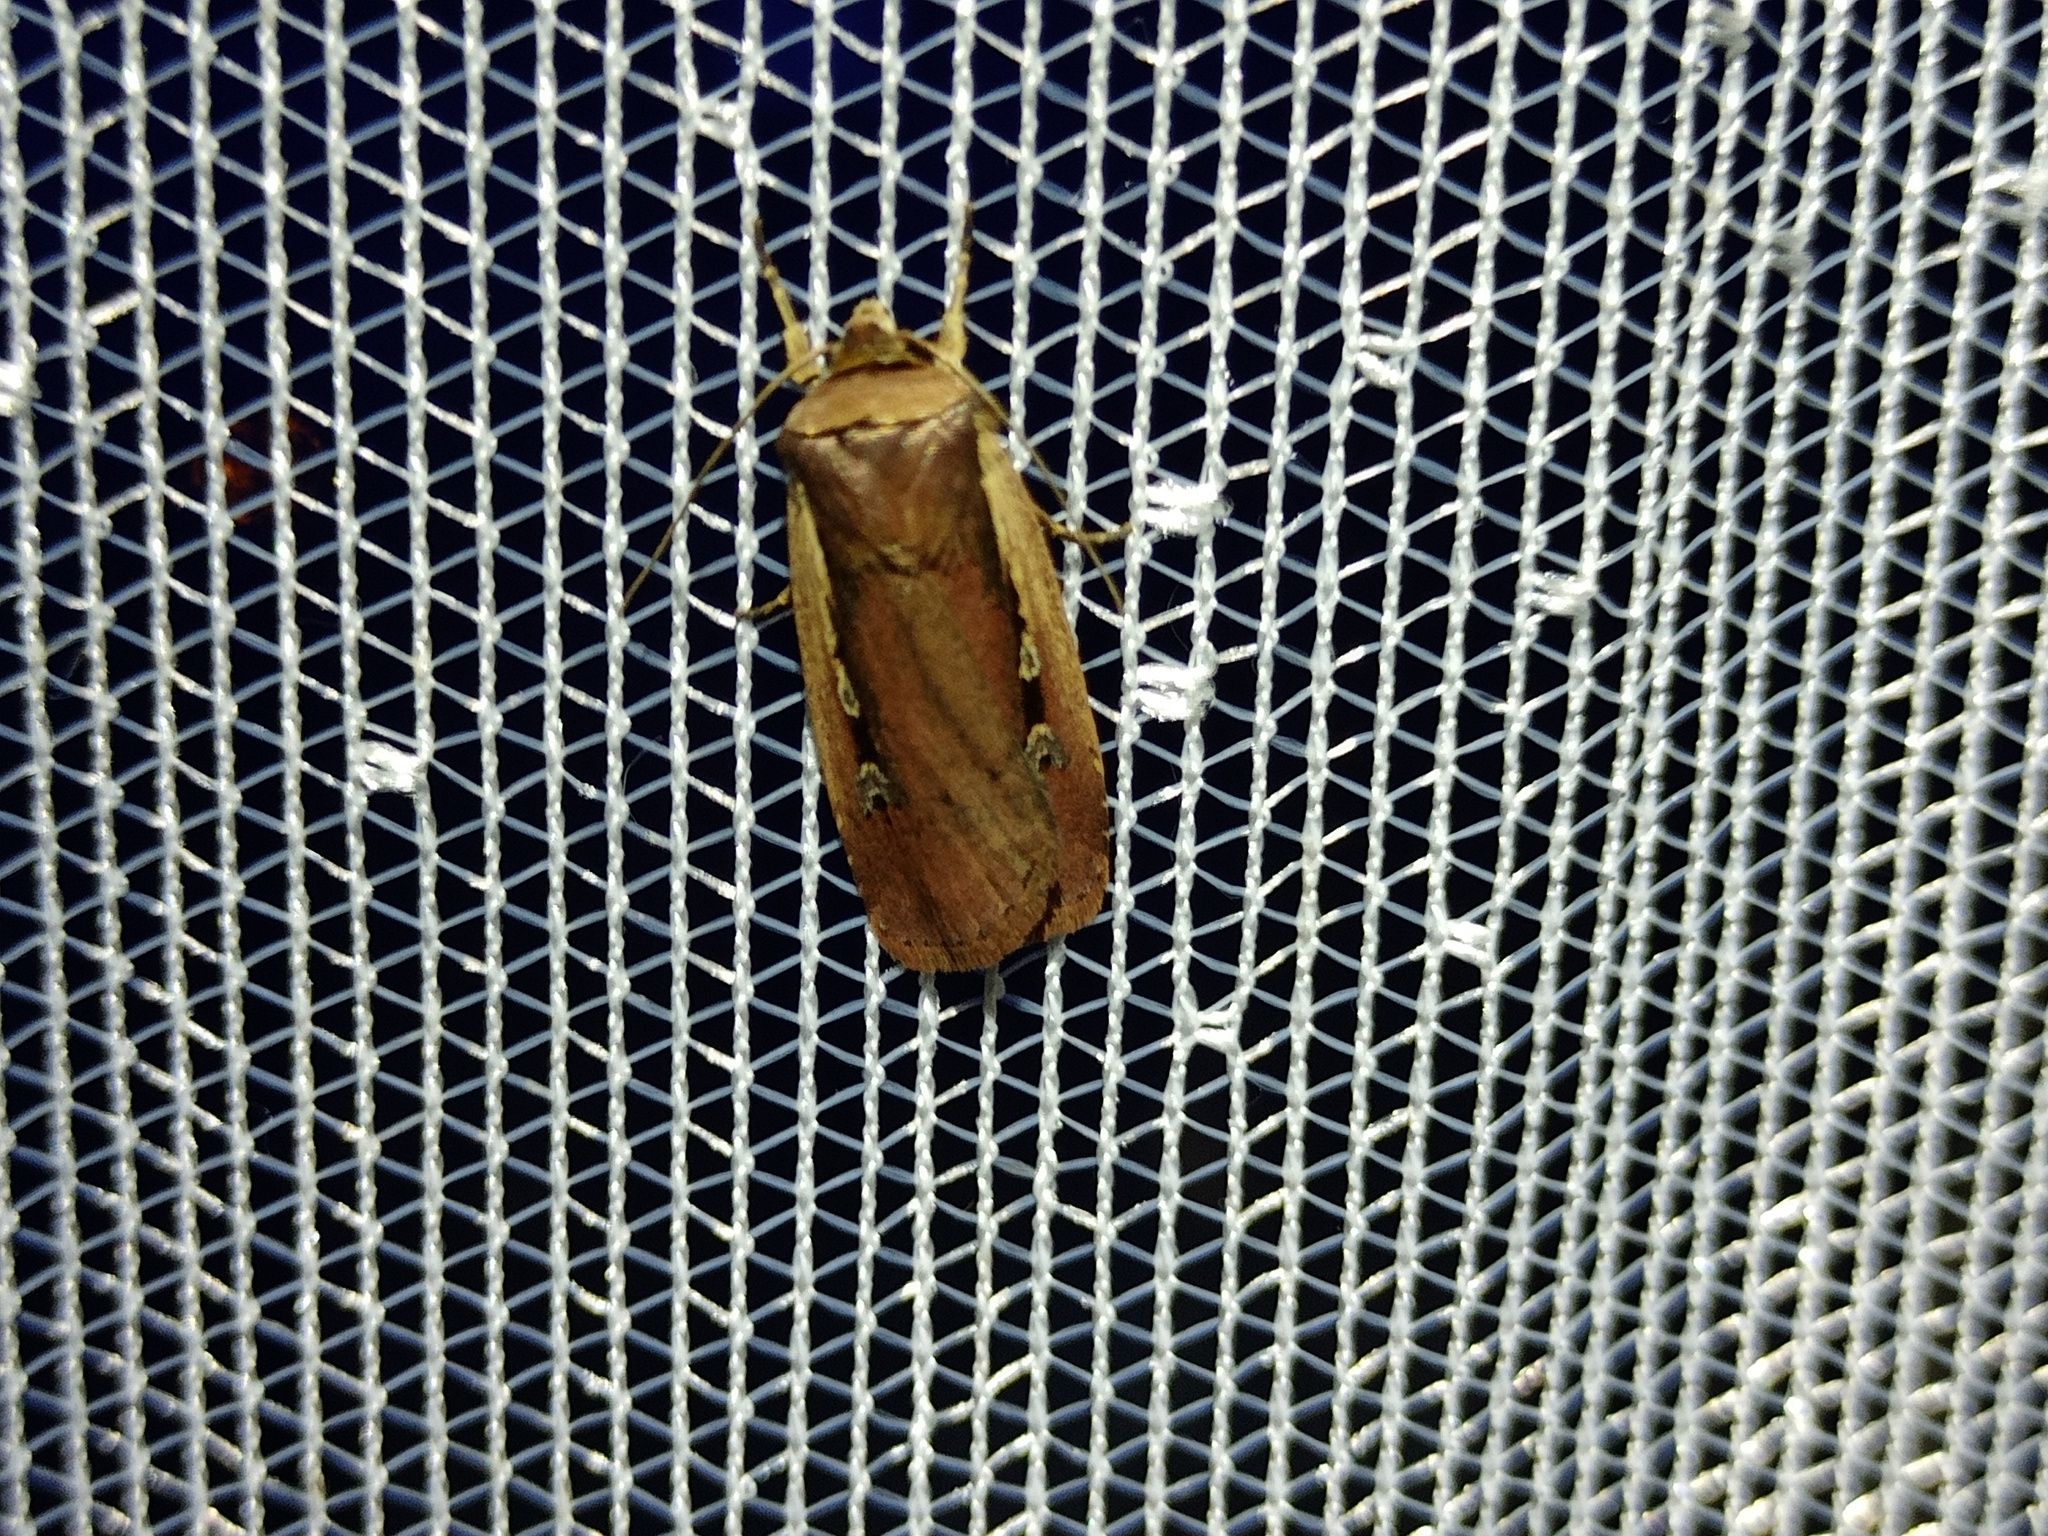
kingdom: Animalia
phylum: Arthropoda
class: Insecta
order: Lepidoptera
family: Noctuidae
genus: Ochropleura
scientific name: Ochropleura plecta
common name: Flame shoulder
